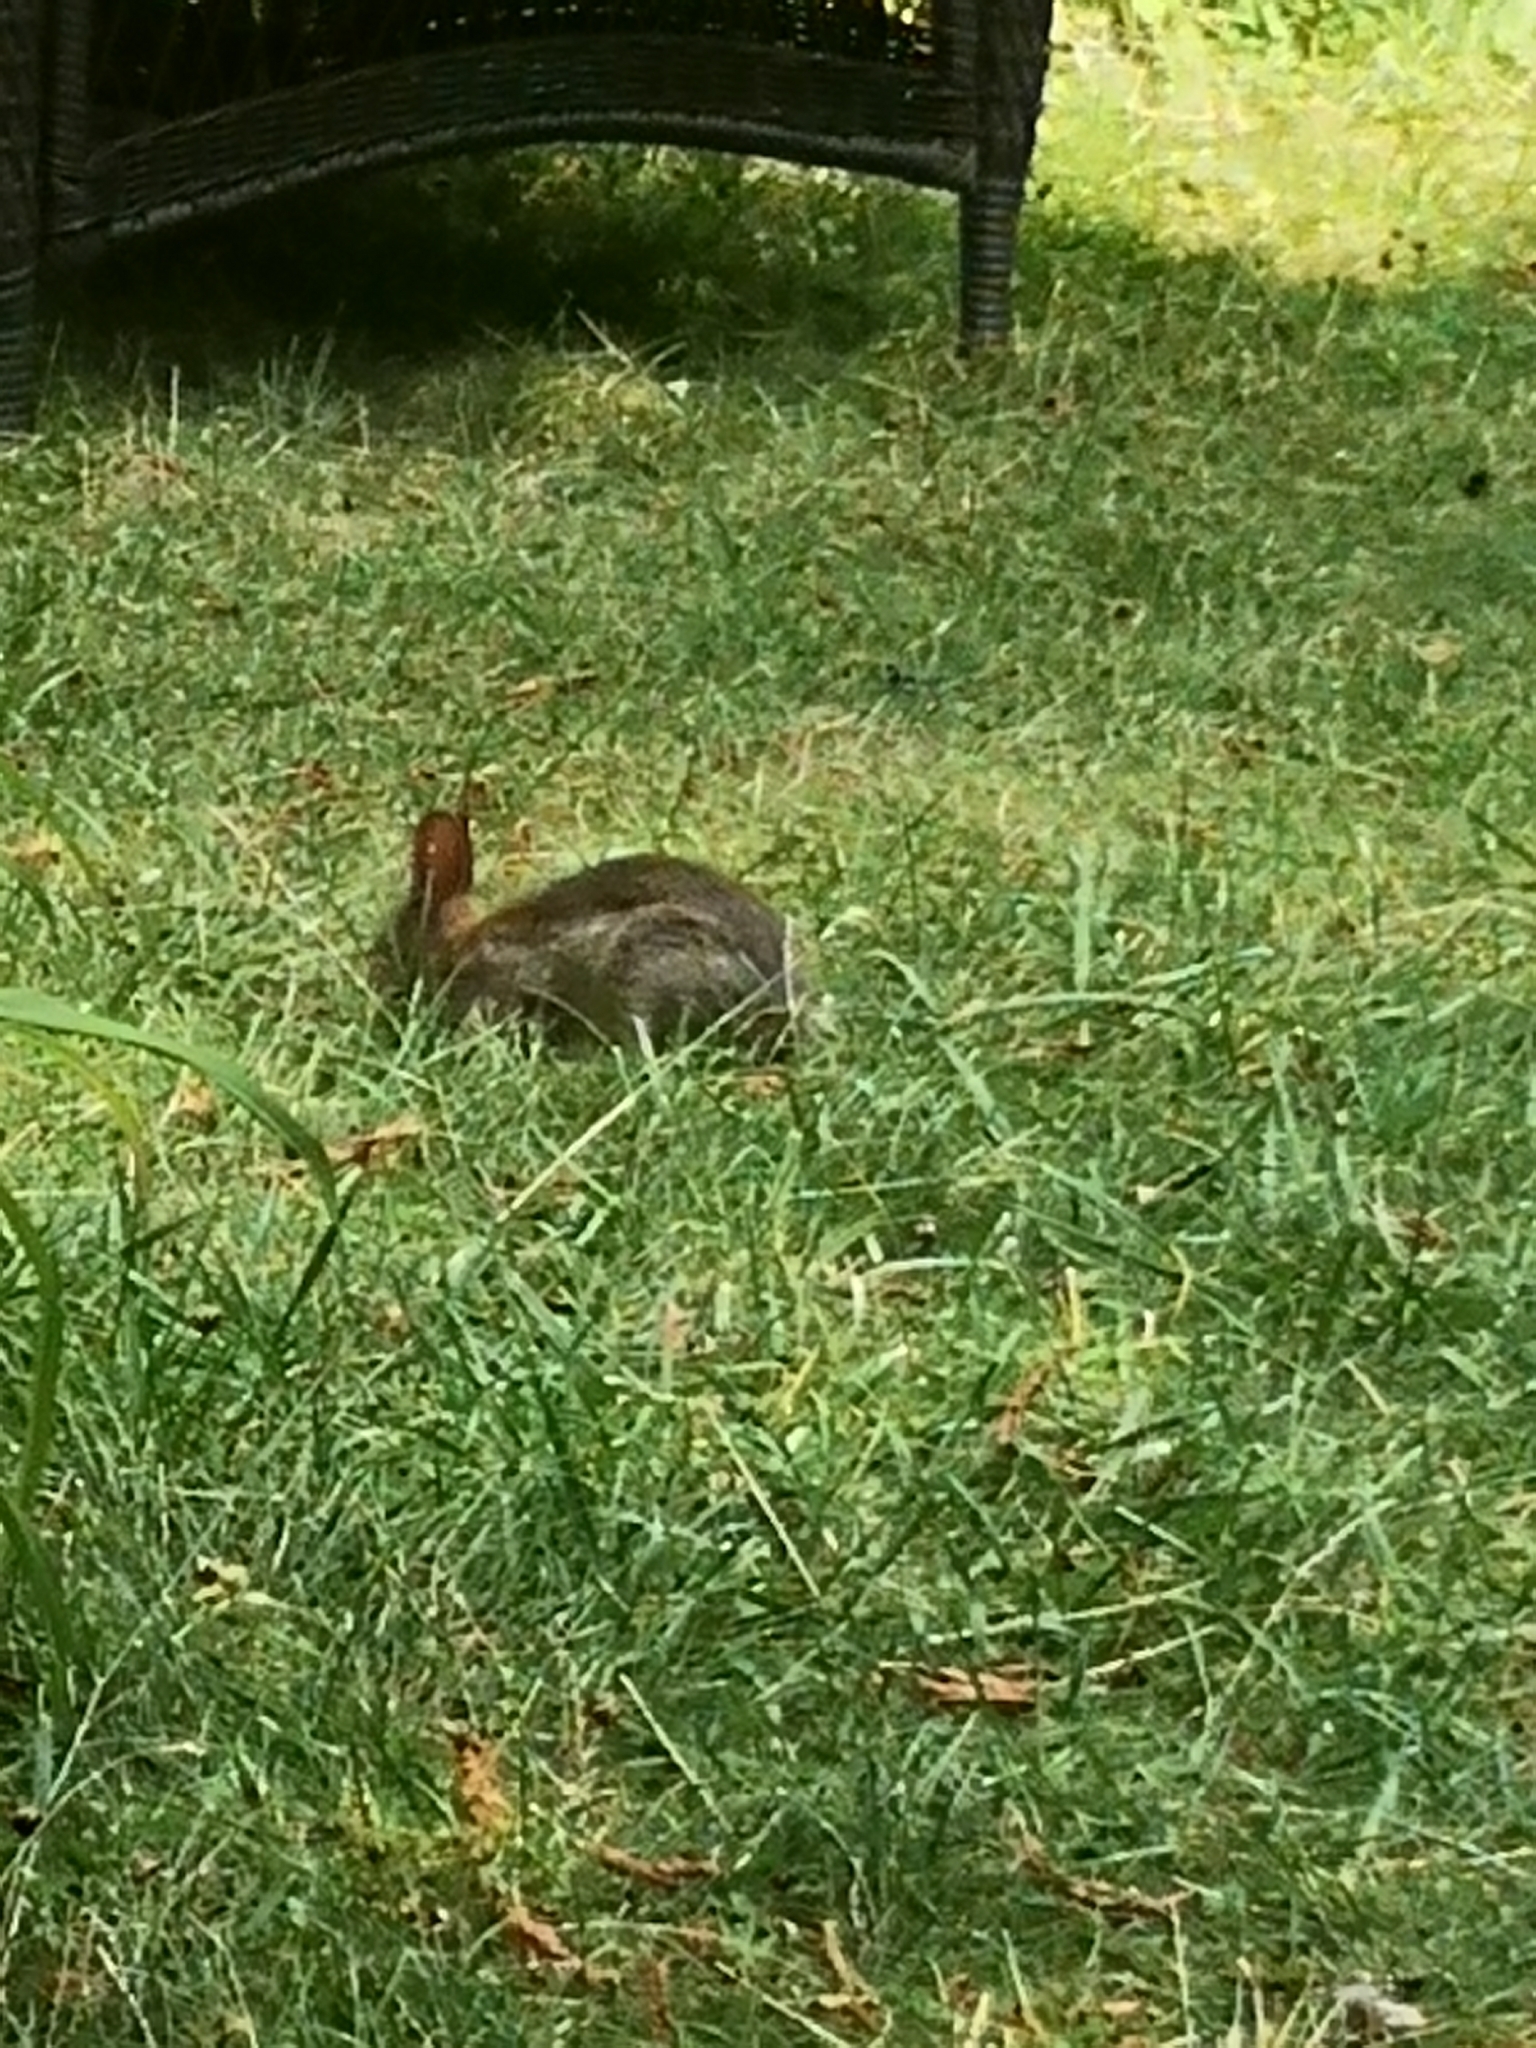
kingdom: Animalia
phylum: Chordata
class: Mammalia
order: Lagomorpha
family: Leporidae
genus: Sylvilagus
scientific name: Sylvilagus floridanus
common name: Eastern cottontail
